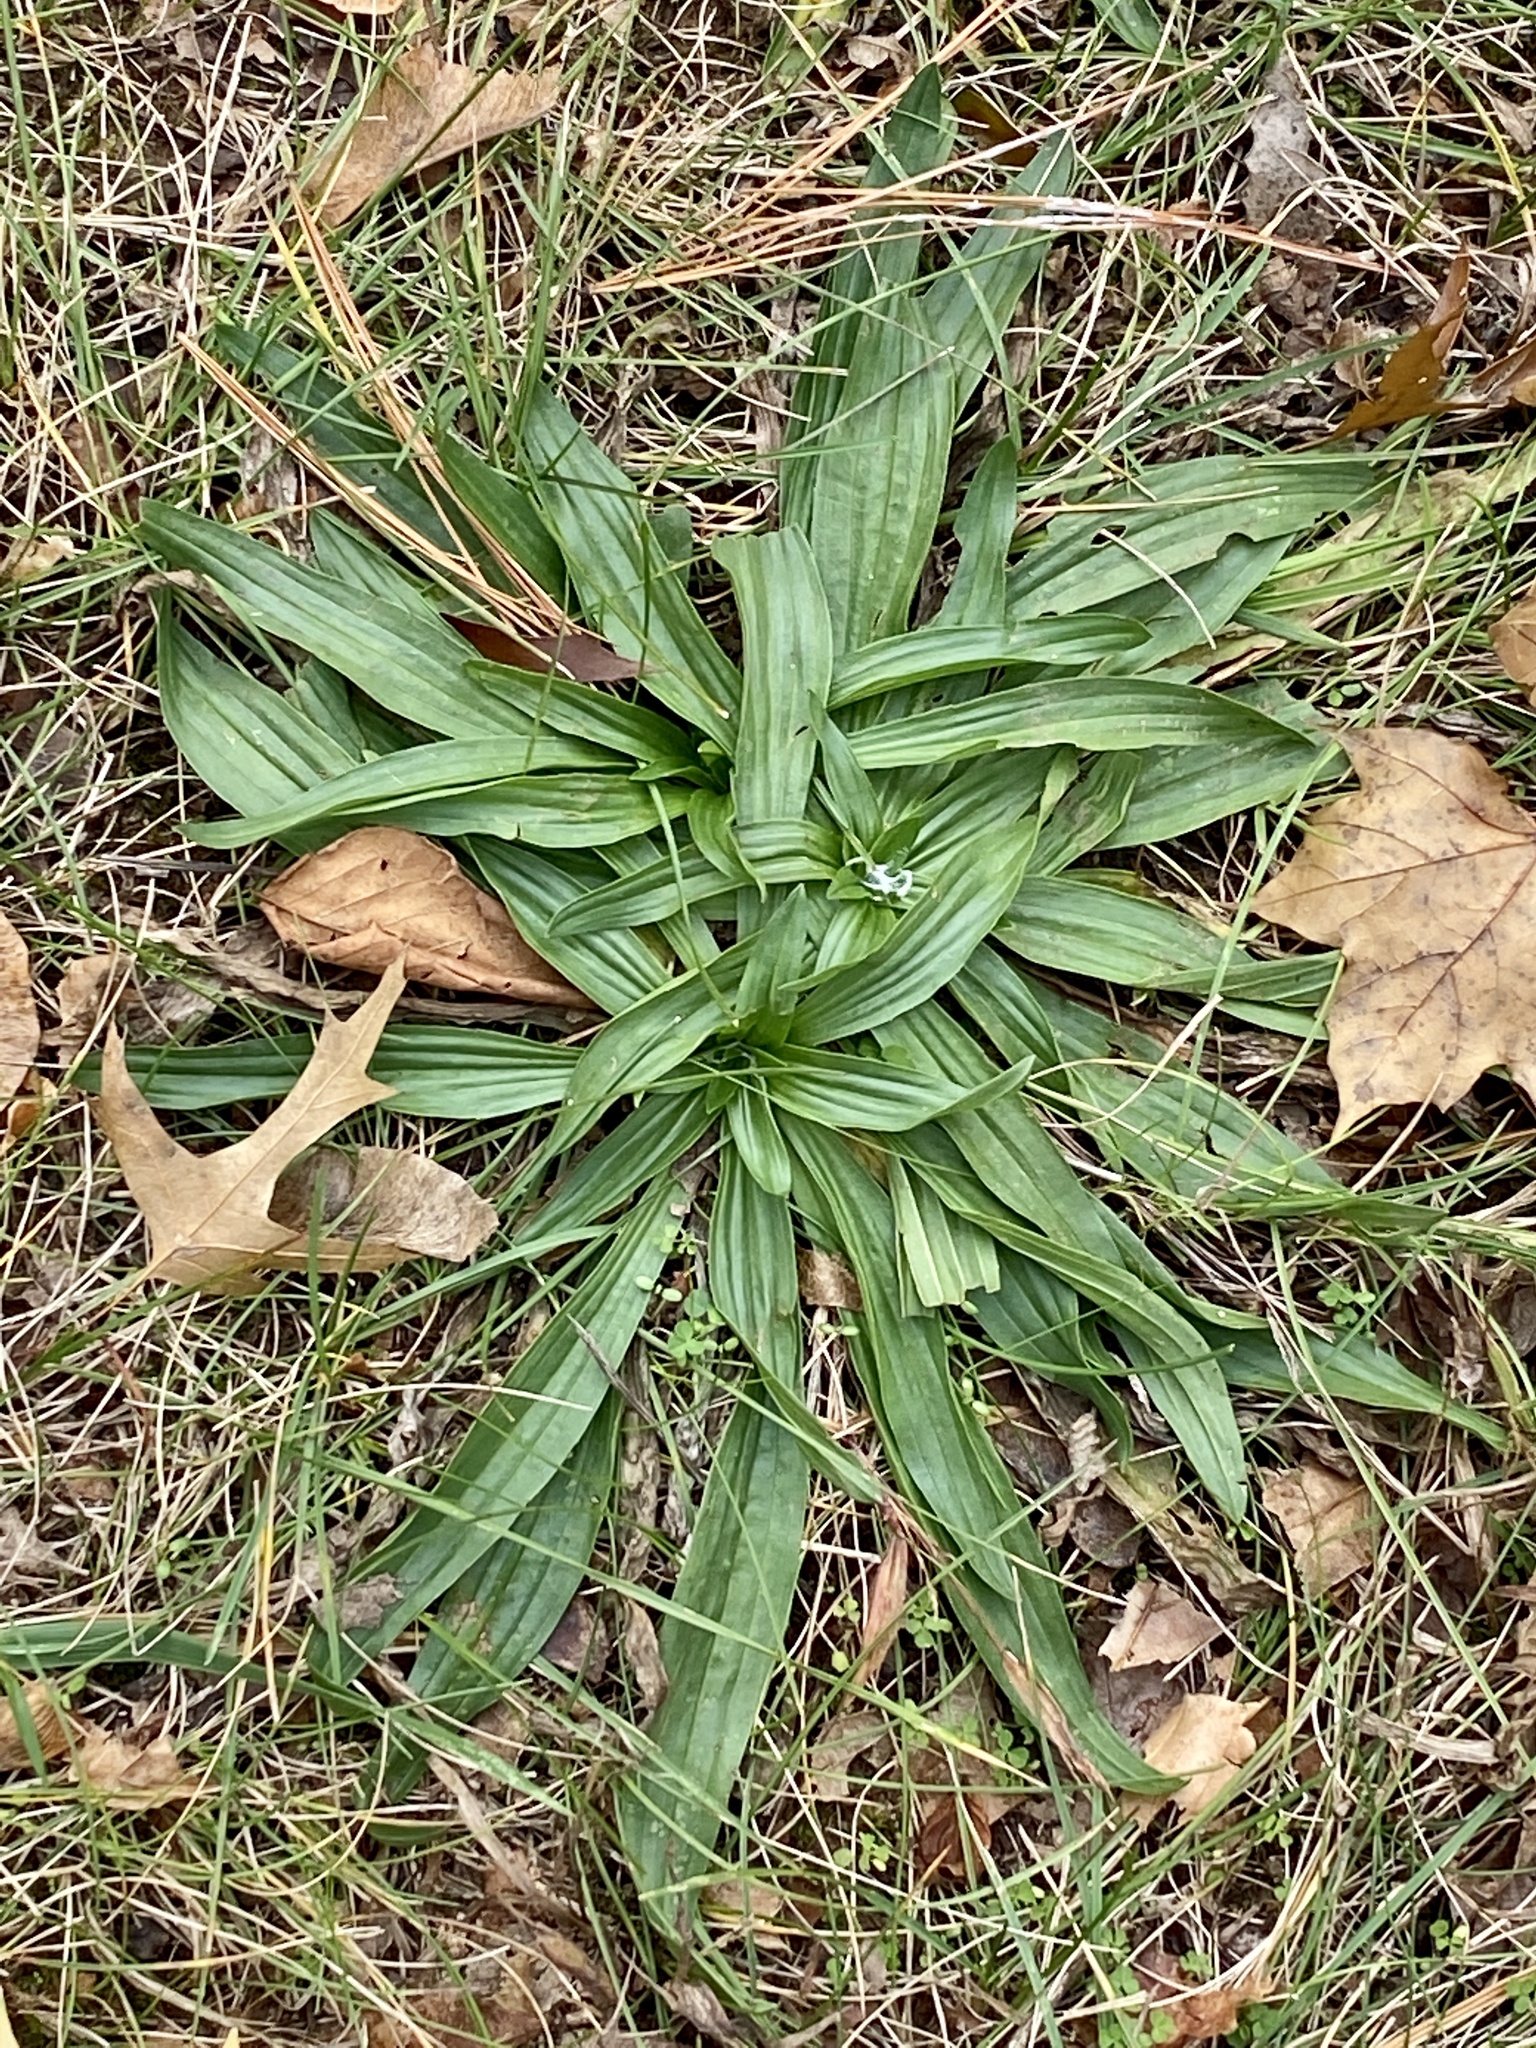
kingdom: Plantae
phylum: Tracheophyta
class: Magnoliopsida
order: Lamiales
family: Plantaginaceae
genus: Plantago
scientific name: Plantago lanceolata
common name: Ribwort plantain
